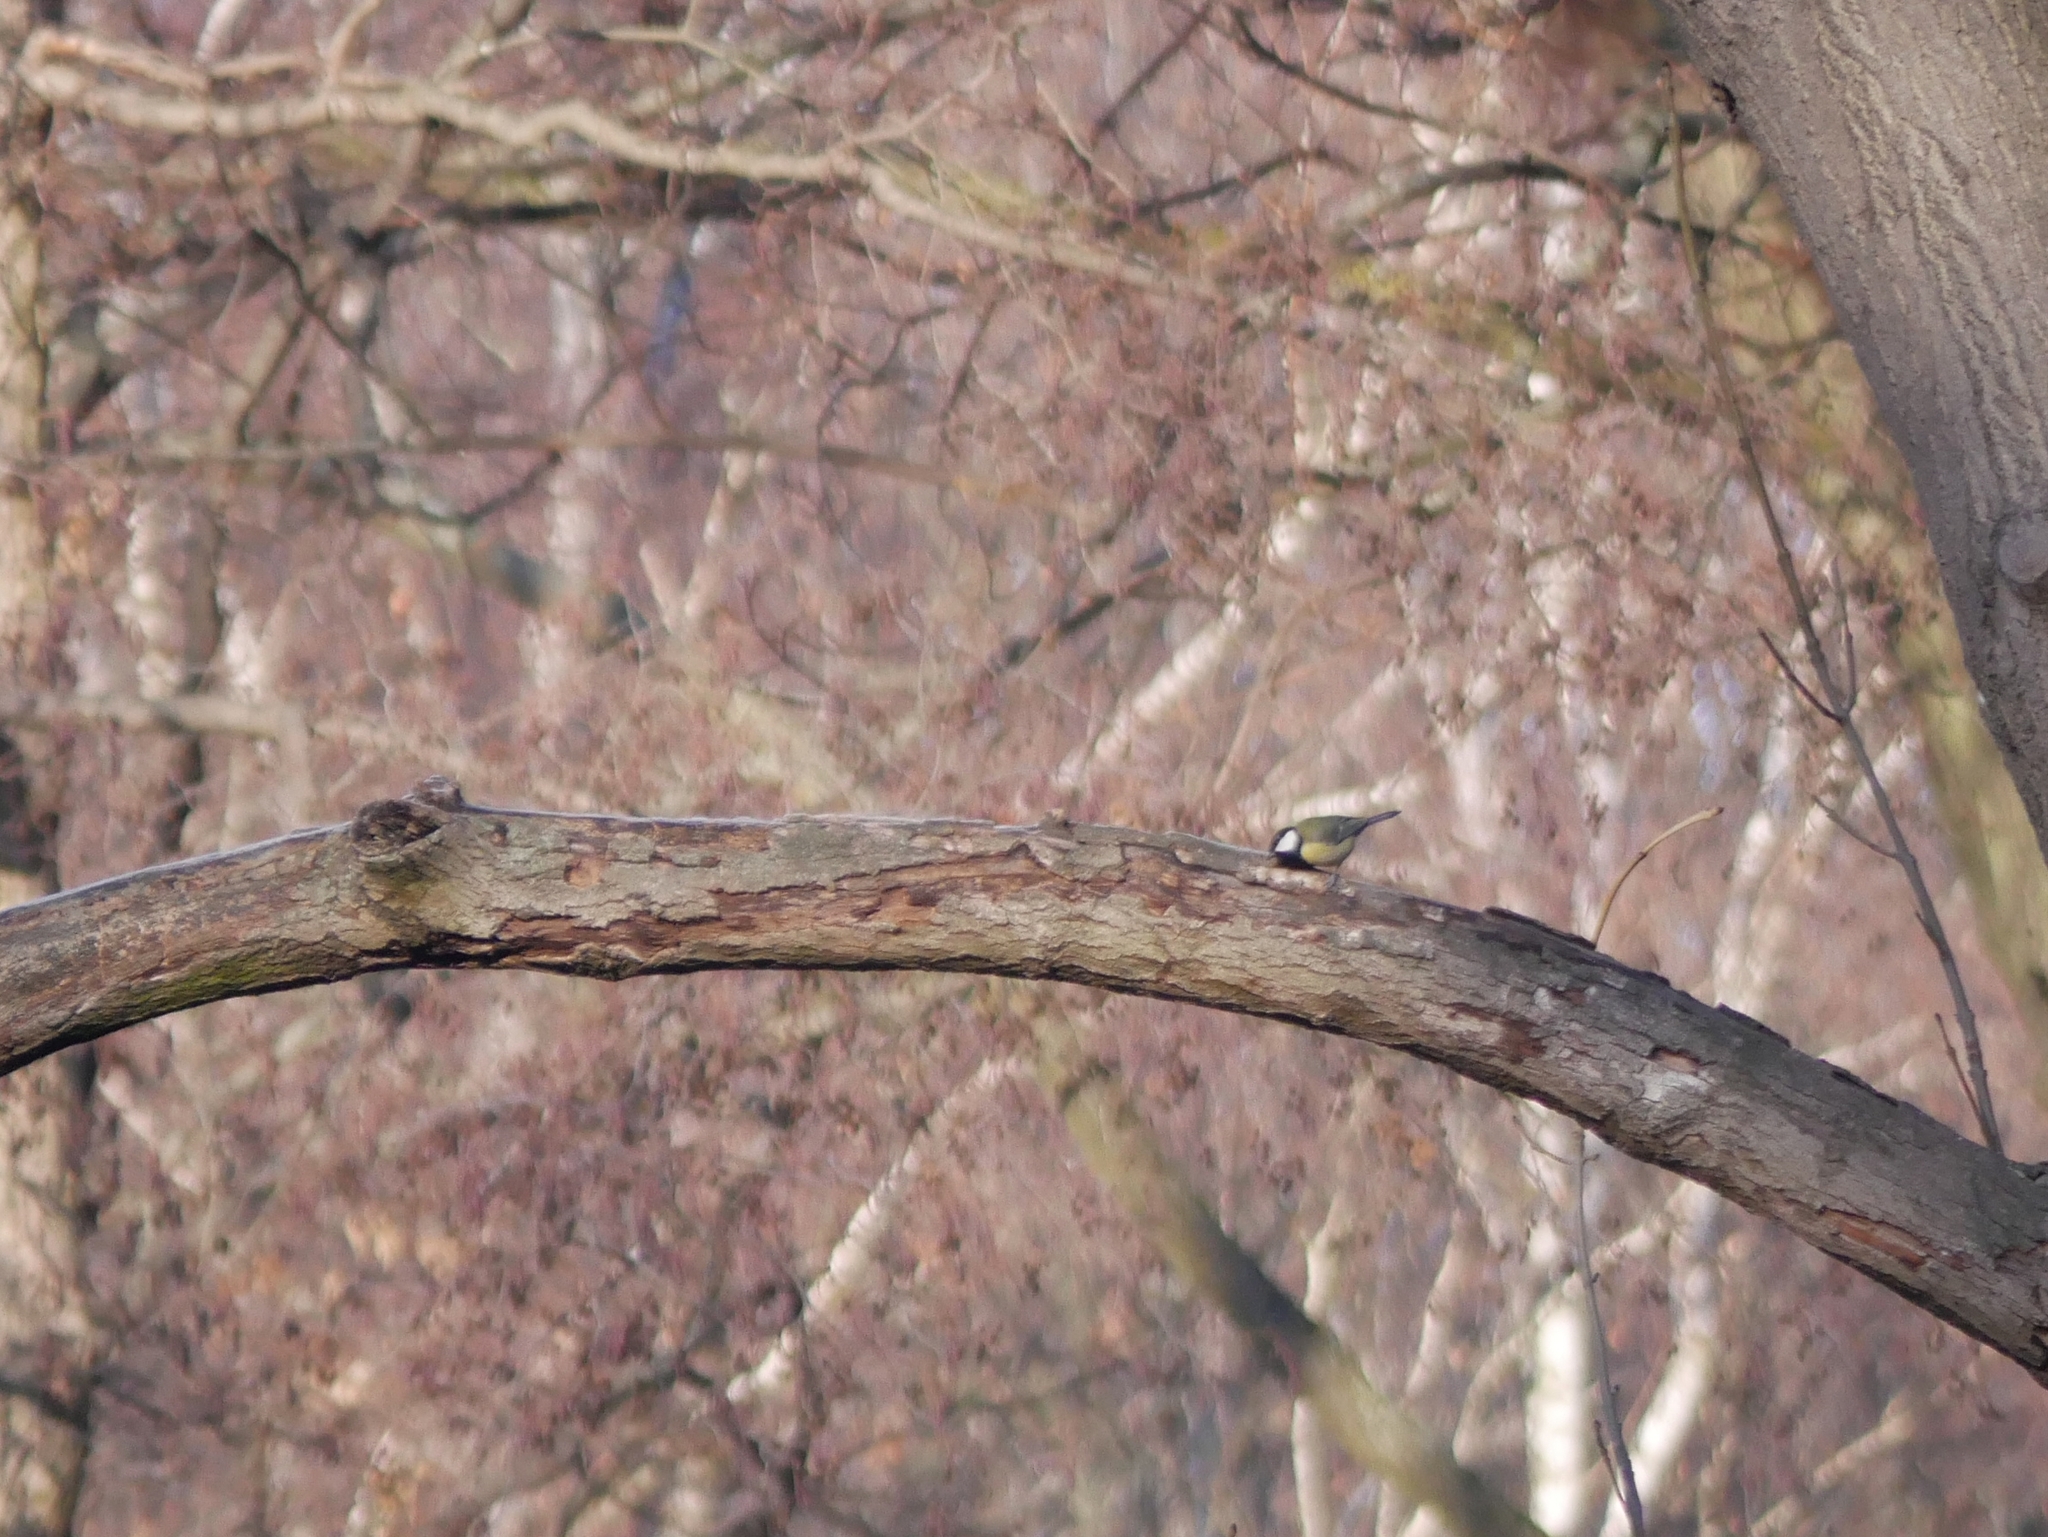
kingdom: Animalia
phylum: Chordata
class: Aves
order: Passeriformes
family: Paridae
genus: Parus
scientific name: Parus major
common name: Great tit
